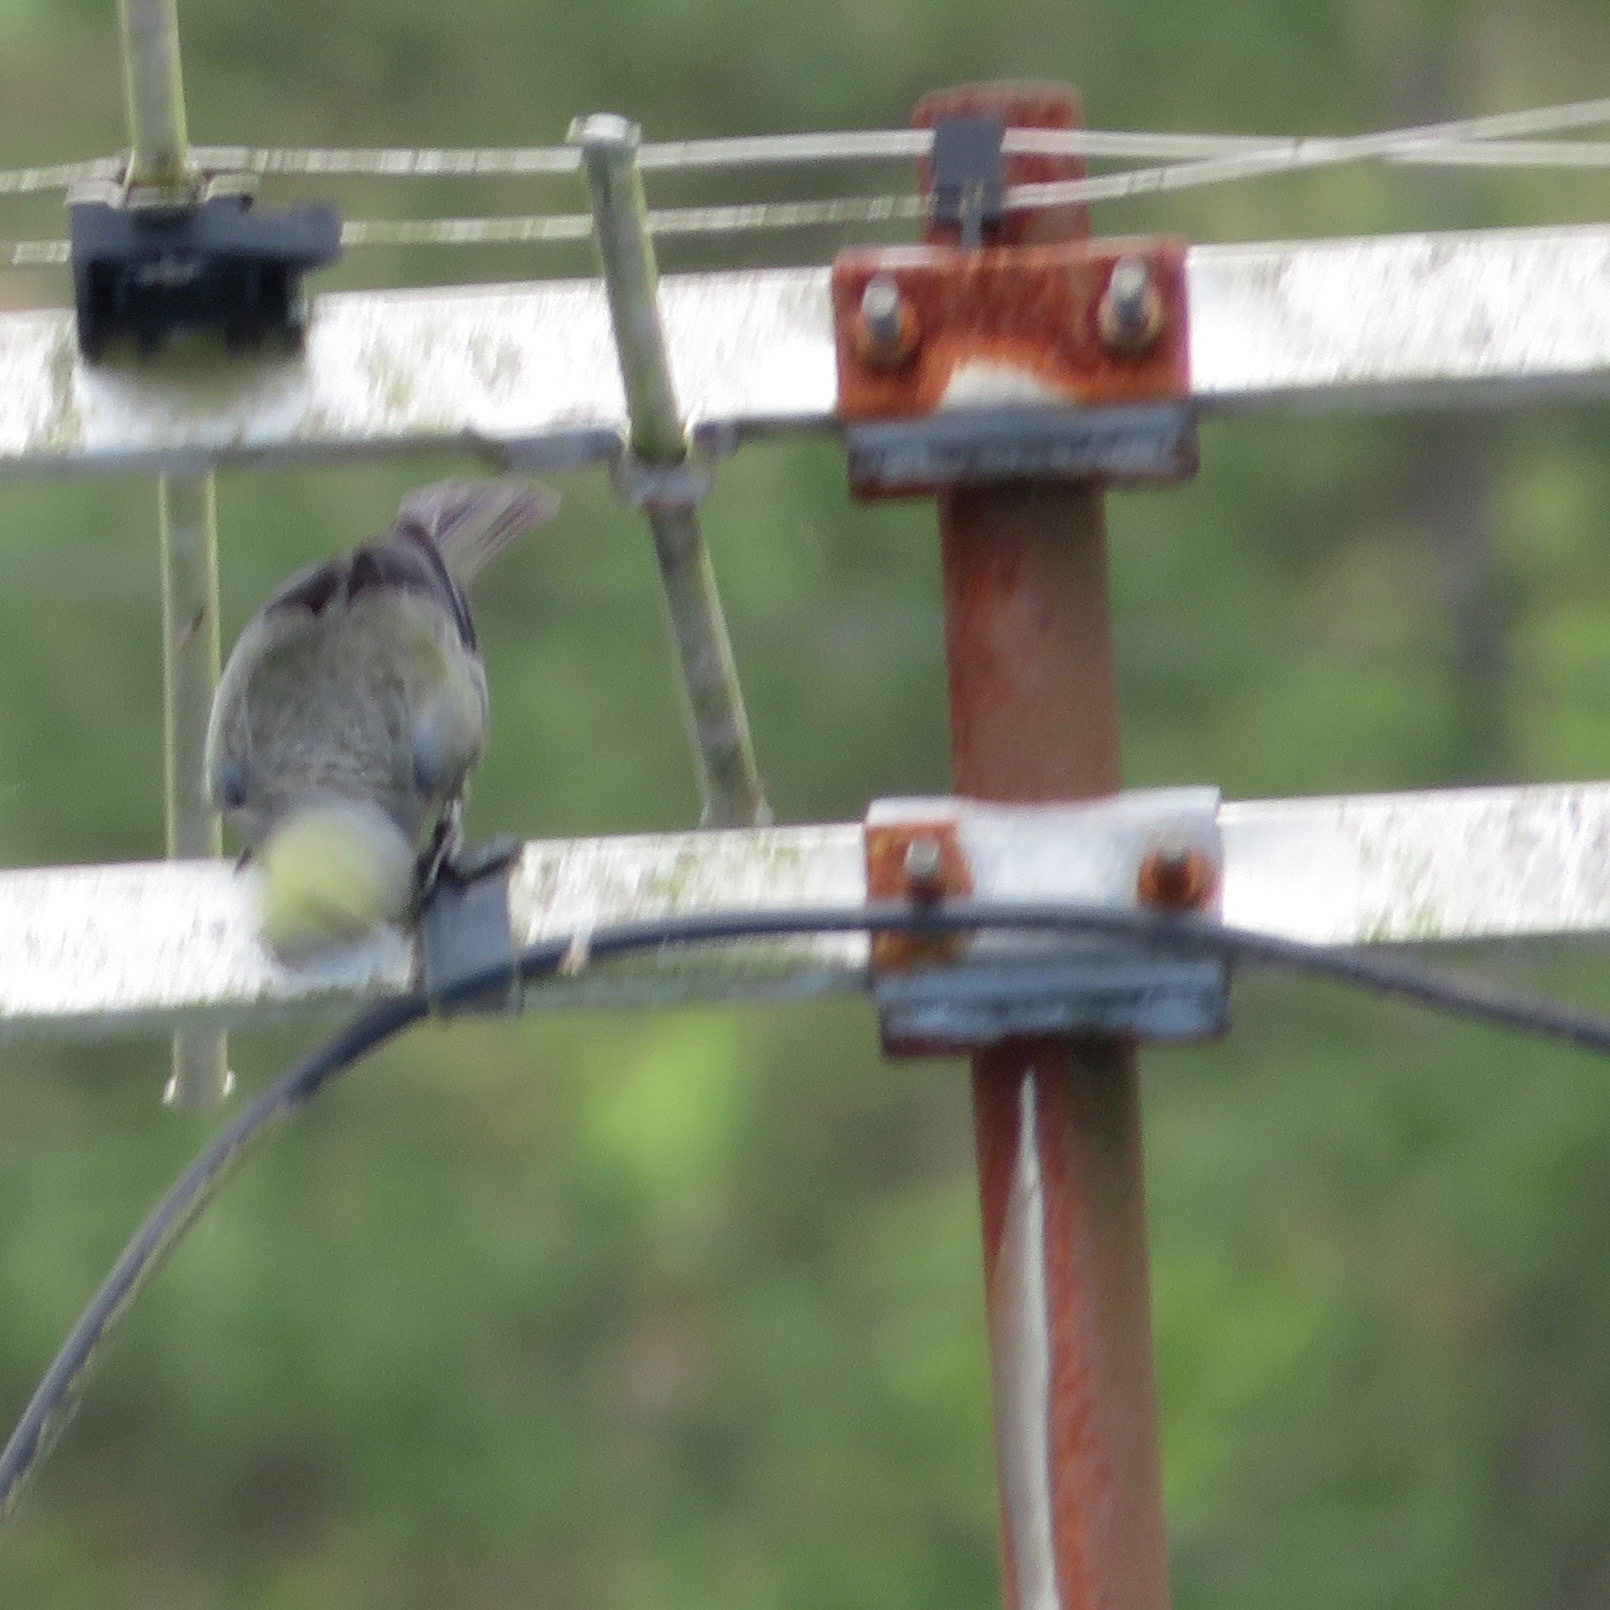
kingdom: Animalia
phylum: Chordata
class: Aves
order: Passeriformes
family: Thraupidae
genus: Thraupis
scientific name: Thraupis palmarum
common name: Palm tanager
